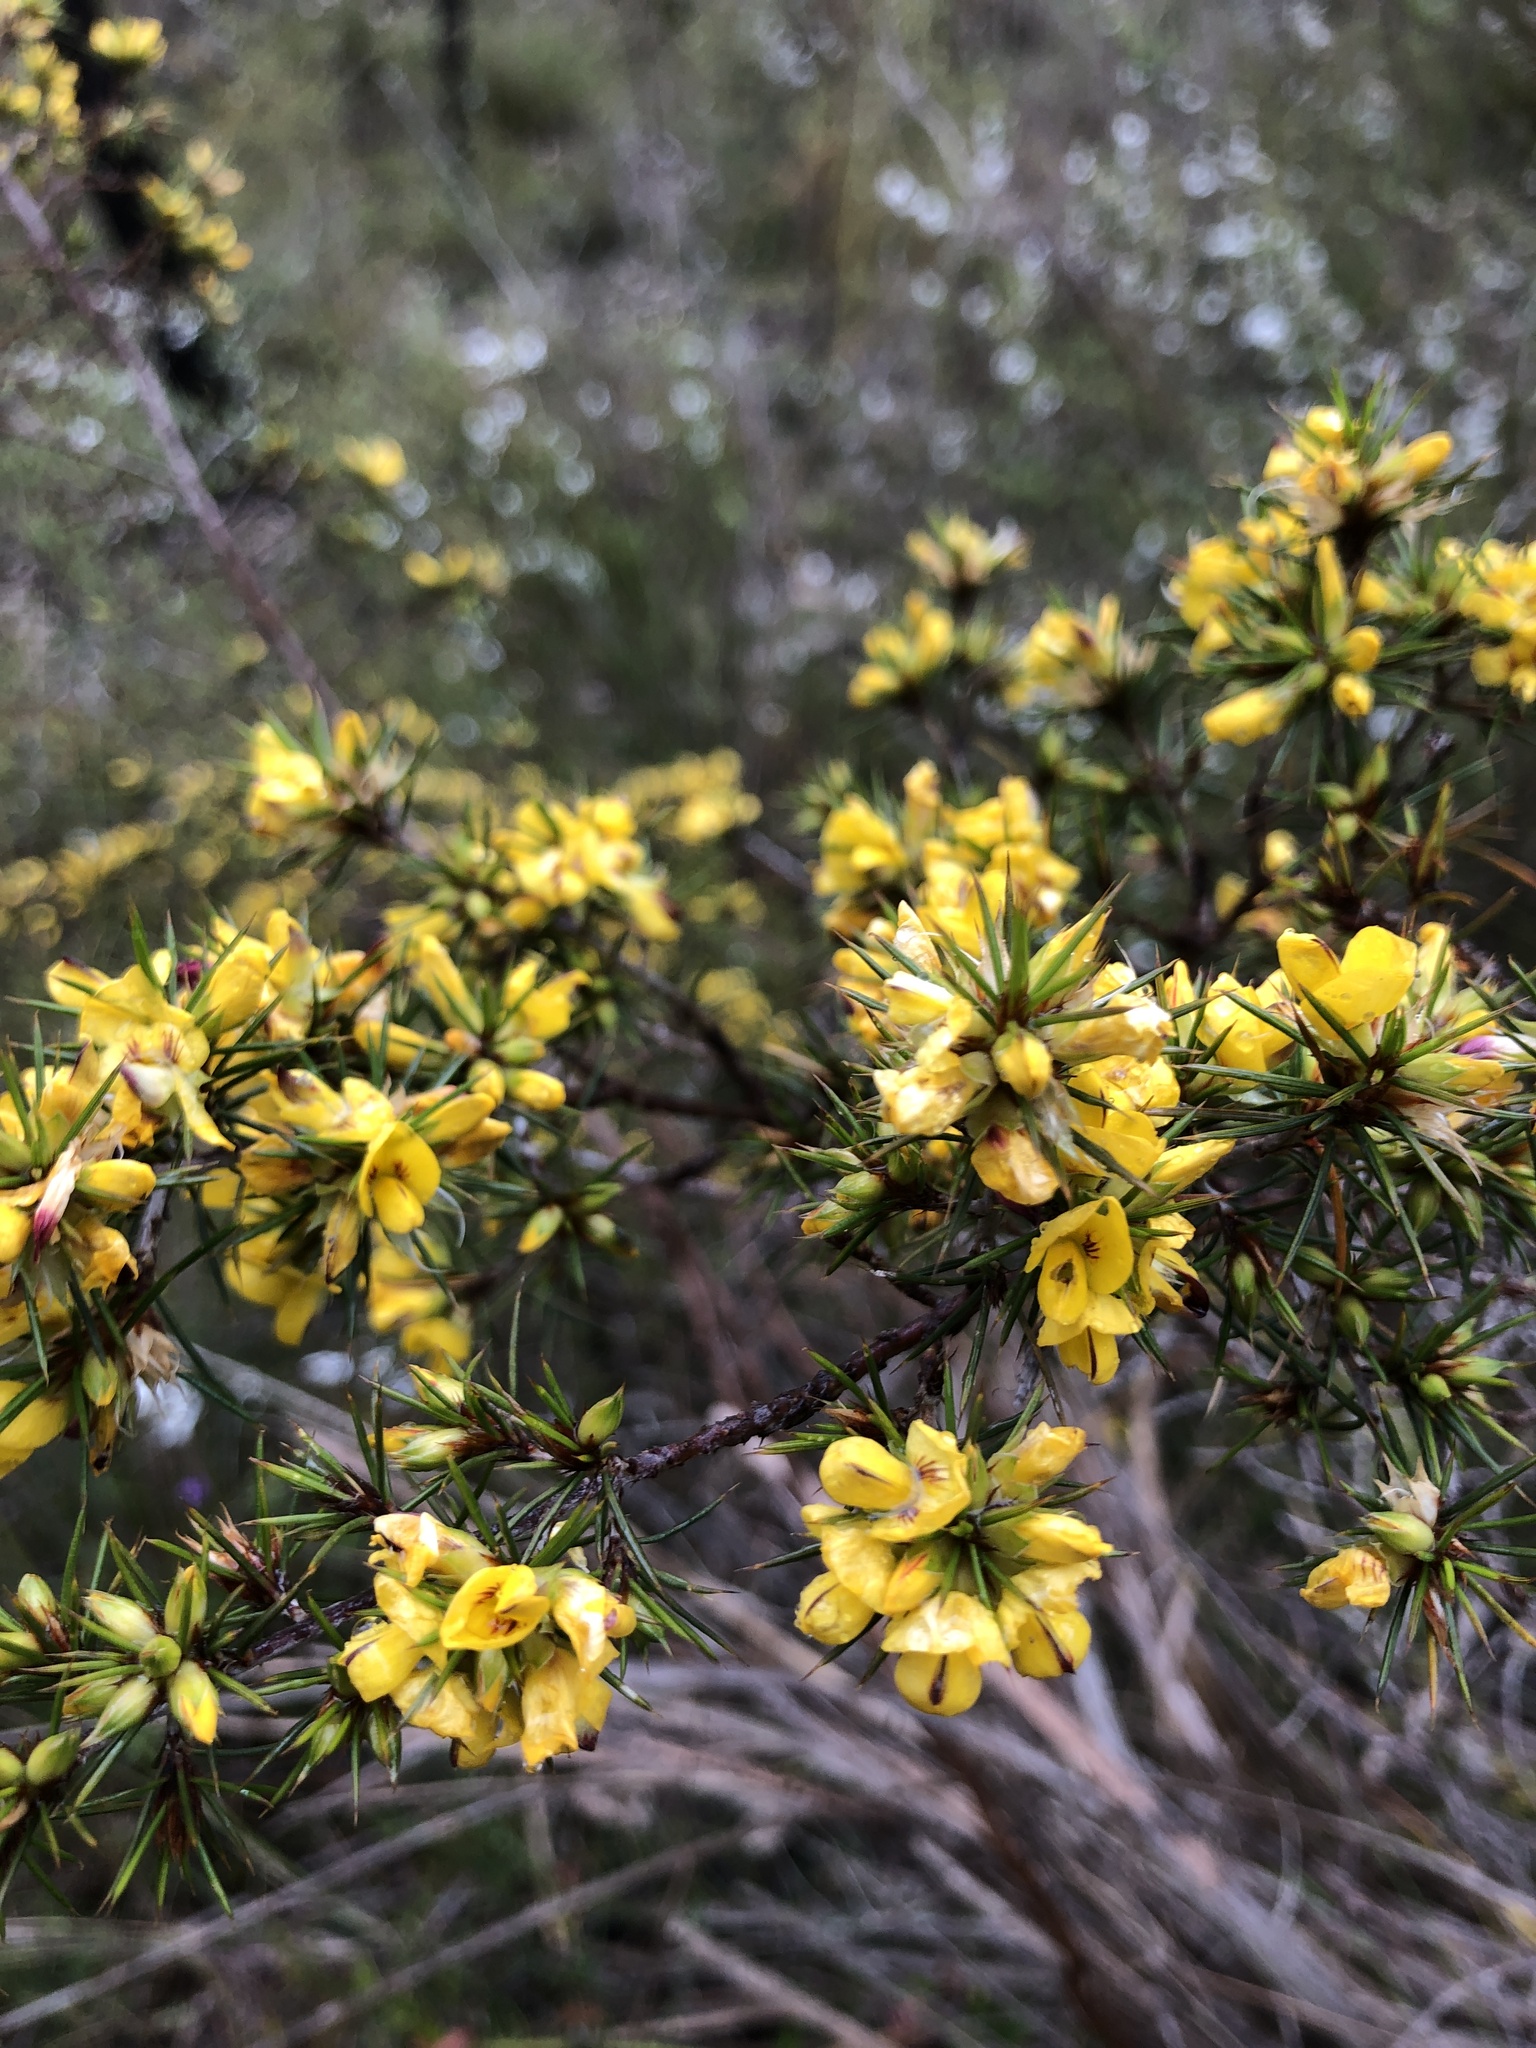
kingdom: Plantae
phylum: Tracheophyta
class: Magnoliopsida
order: Fabales
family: Fabaceae
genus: Pultenaea
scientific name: Pultenaea acerosa
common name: Bristly bush-pea
